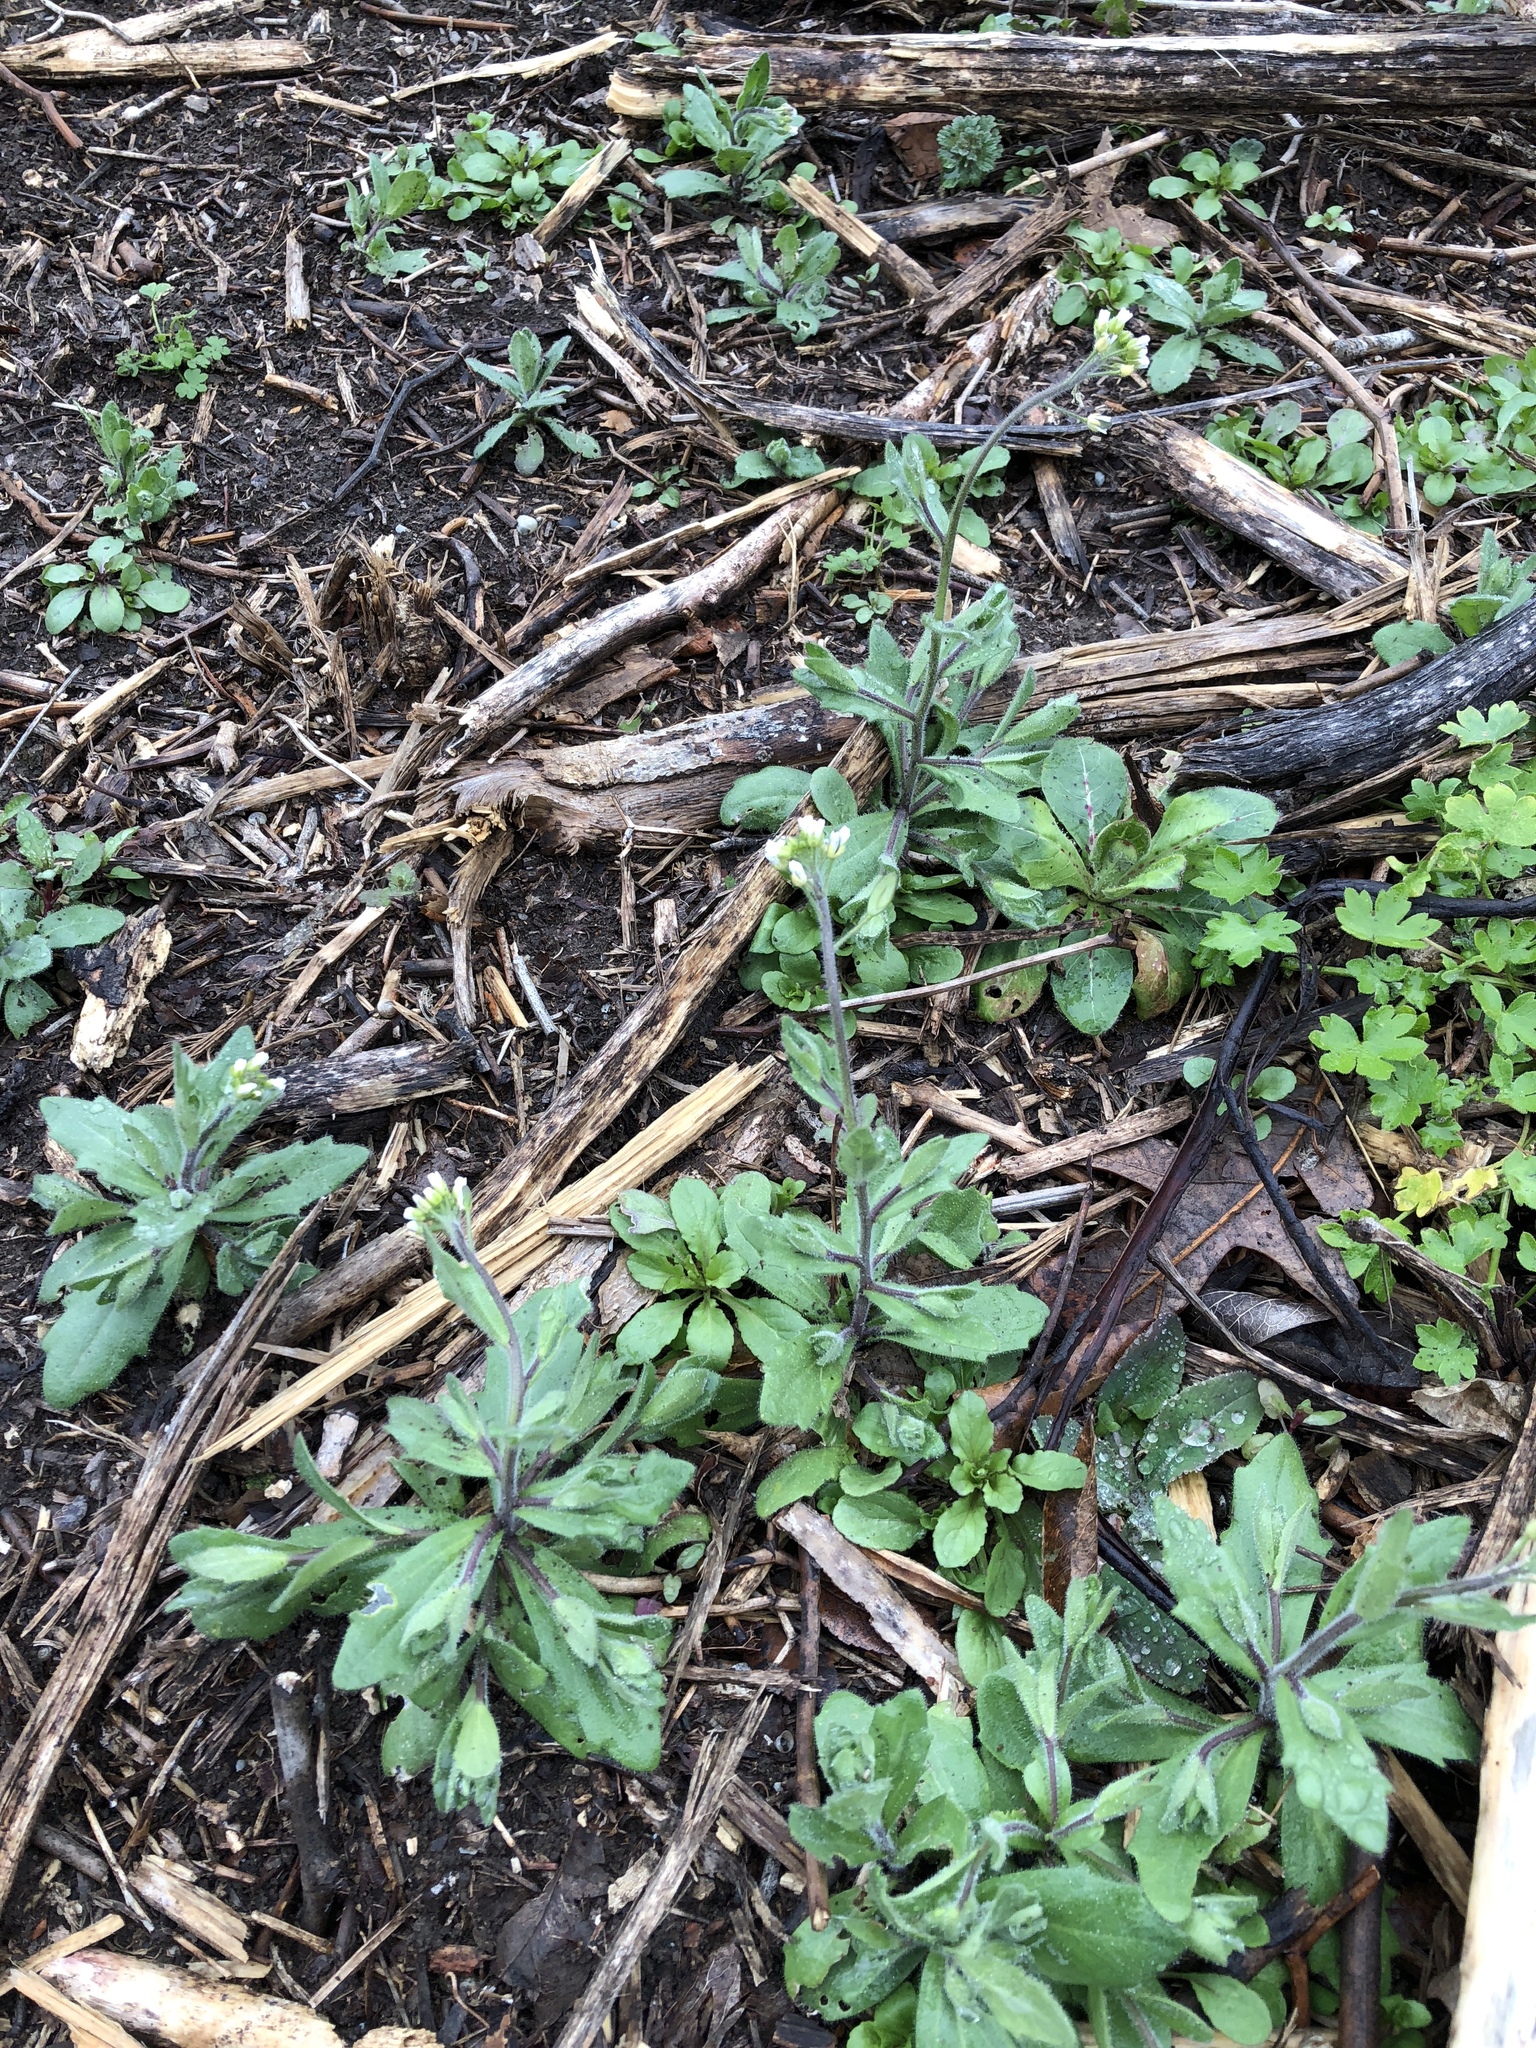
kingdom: Plantae
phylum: Tracheophyta
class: Magnoliopsida
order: Brassicales
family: Brassicaceae
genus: Tomostima
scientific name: Tomostima platycarpa
